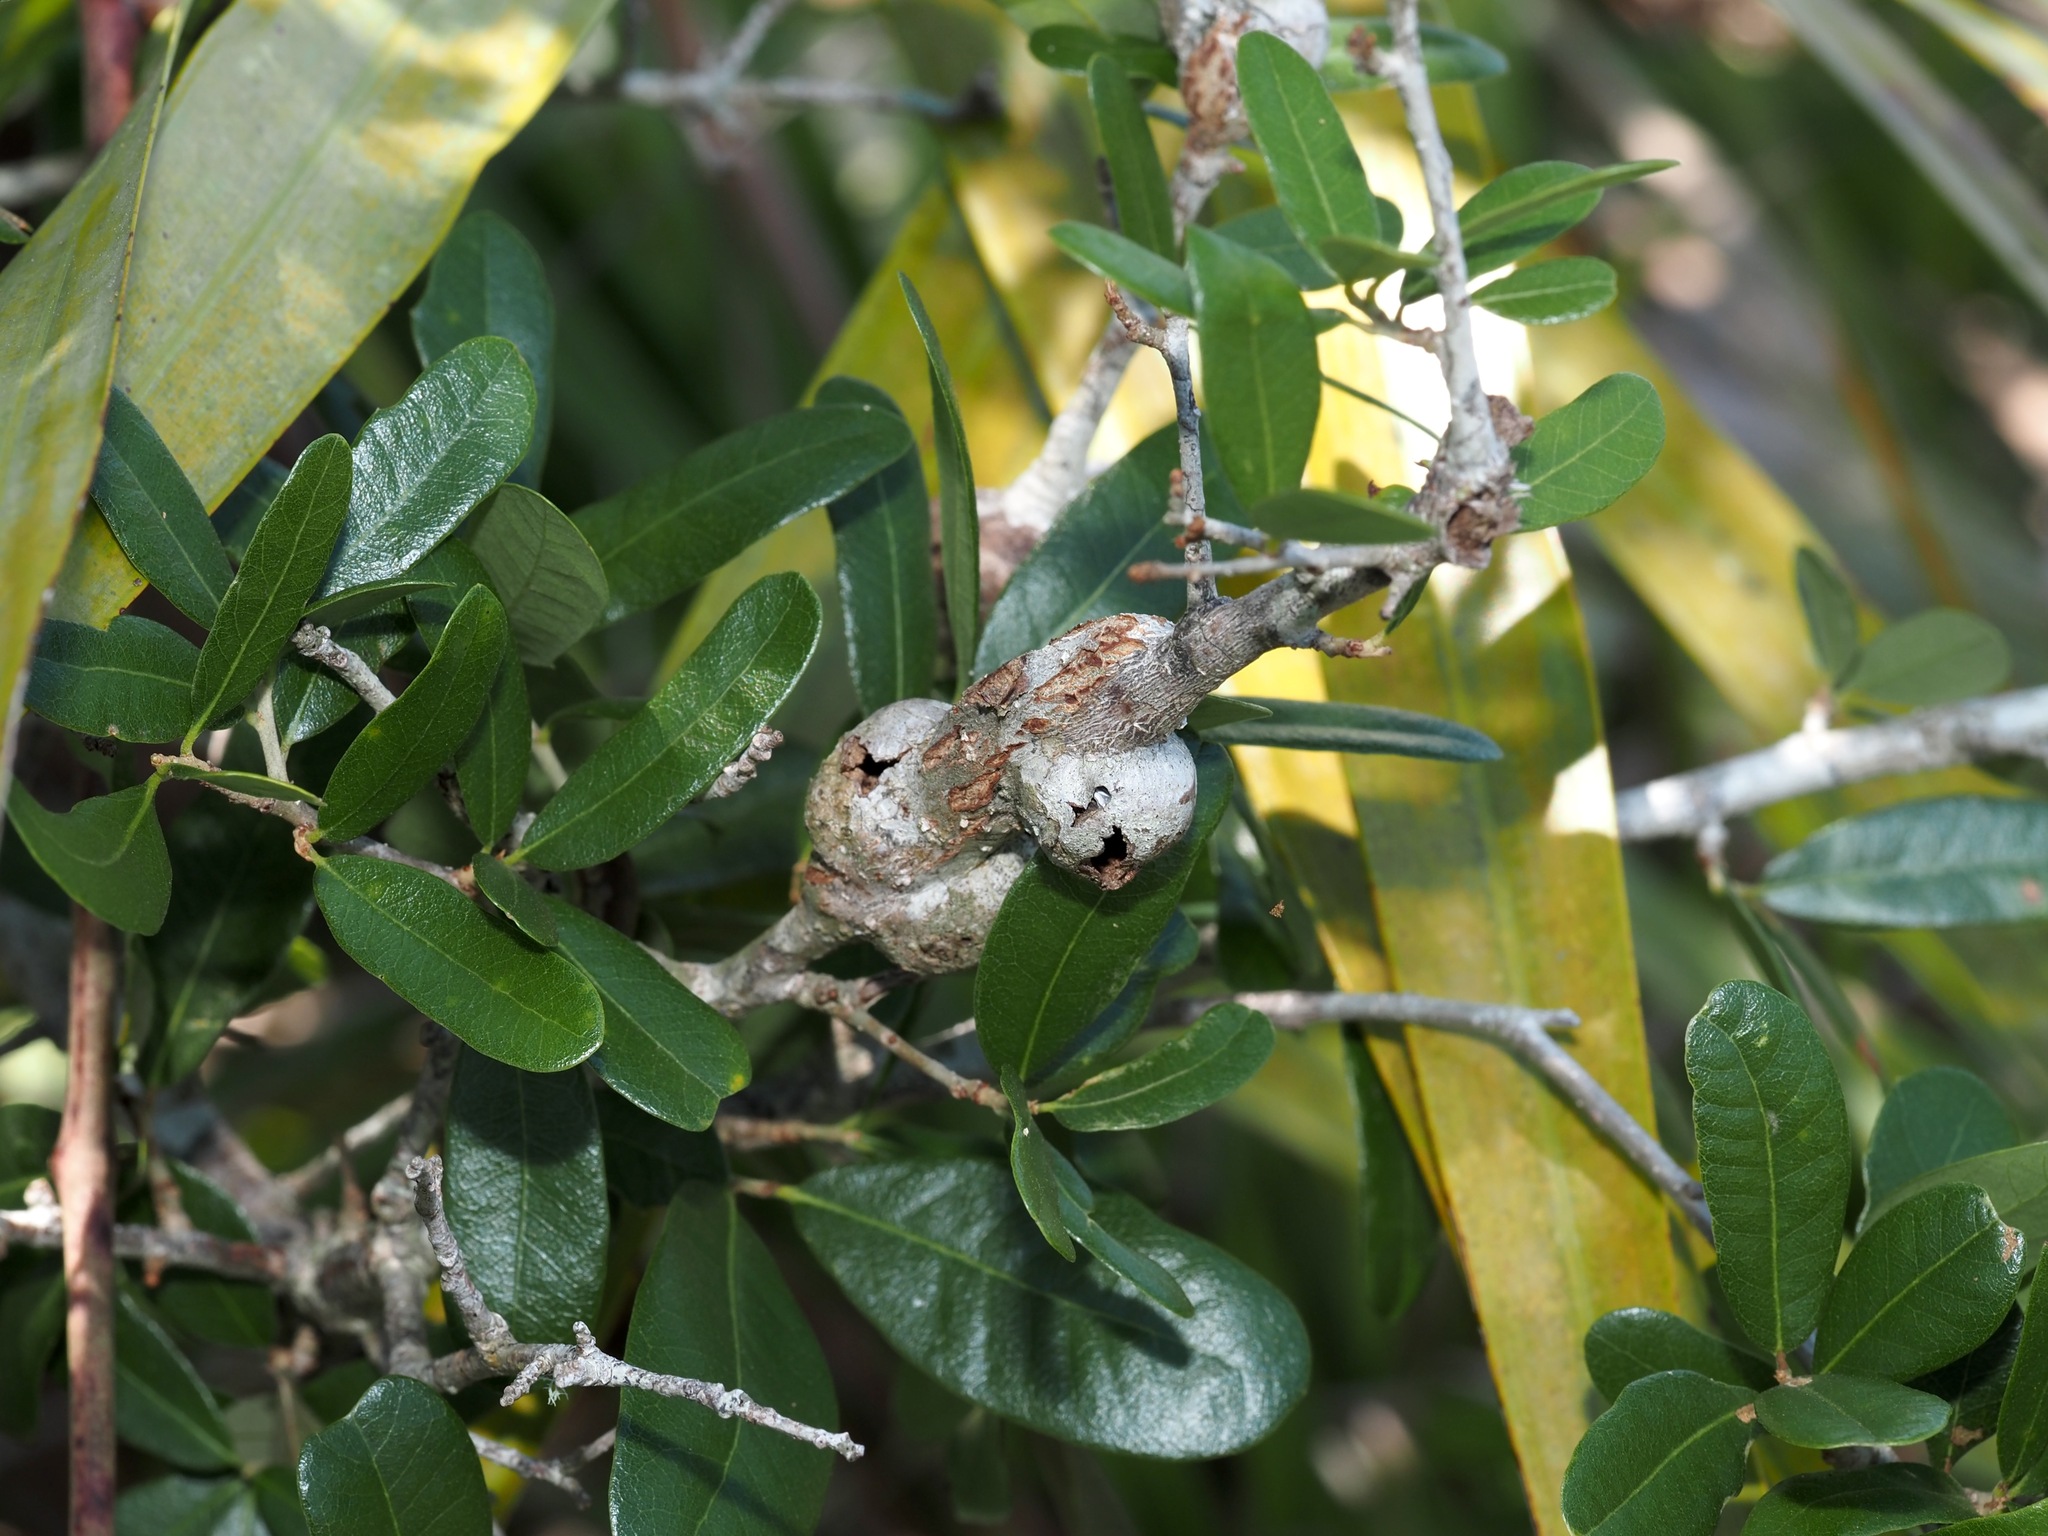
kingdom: Animalia
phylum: Arthropoda
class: Insecta
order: Hymenoptera
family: Cynipidae
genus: Callirhytis
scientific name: Callirhytis
